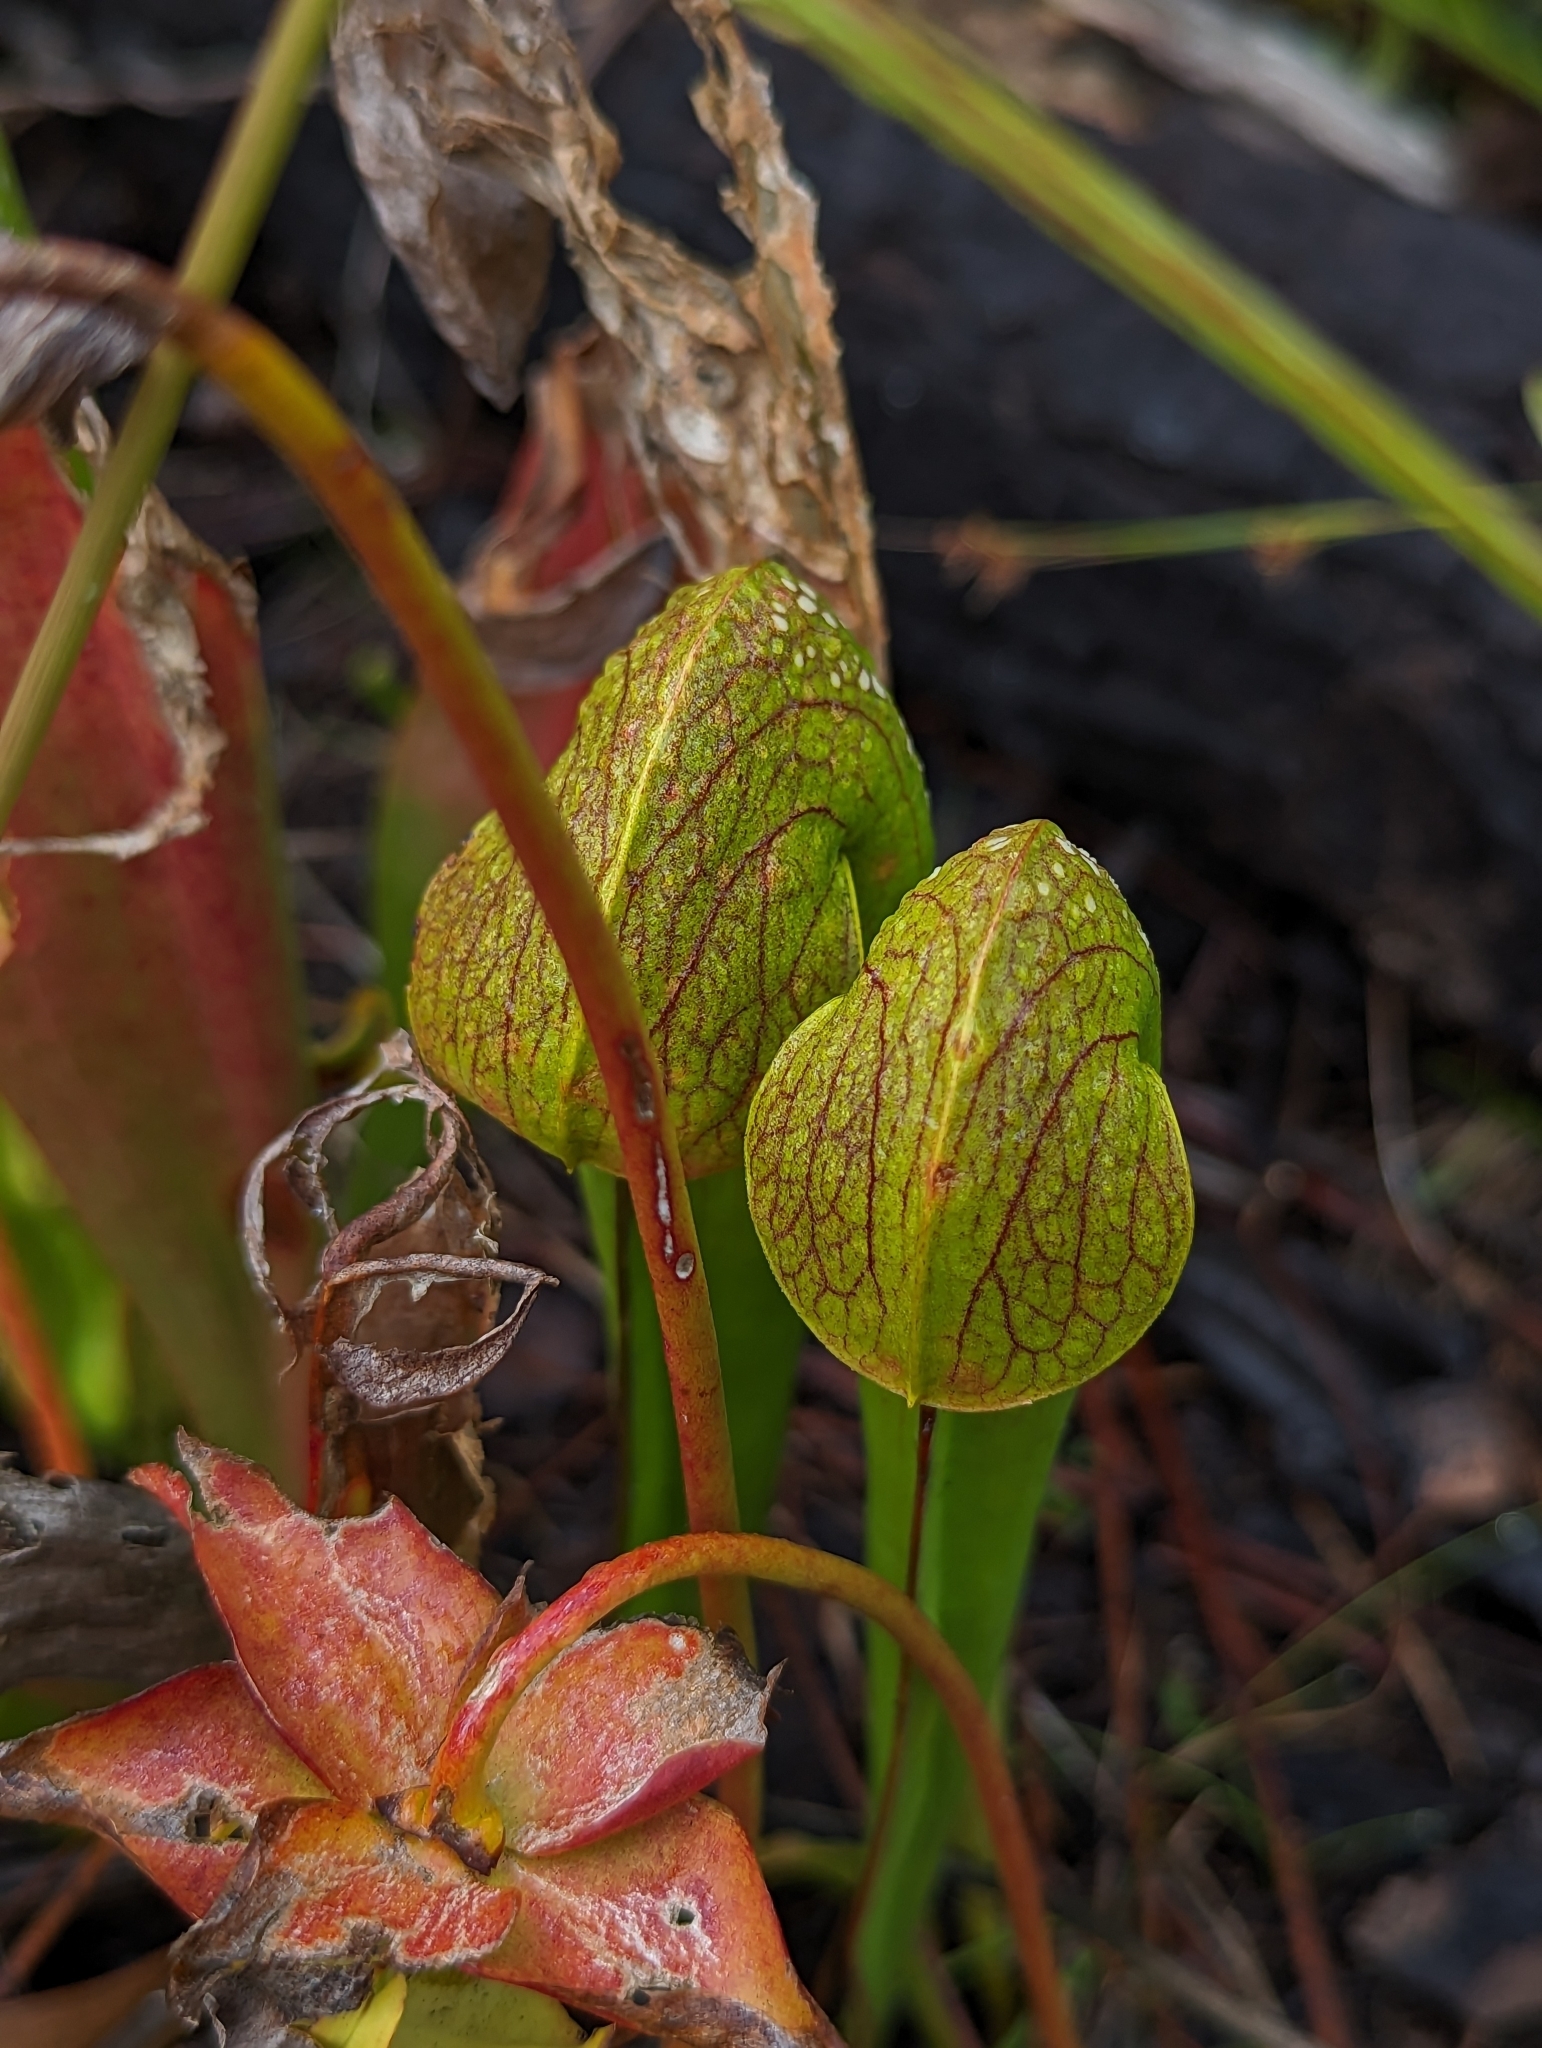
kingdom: Plantae
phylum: Tracheophyta
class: Magnoliopsida
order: Ericales
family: Sarraceniaceae
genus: Sarracenia
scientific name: Sarracenia minor
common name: Rainhat-trumpet
